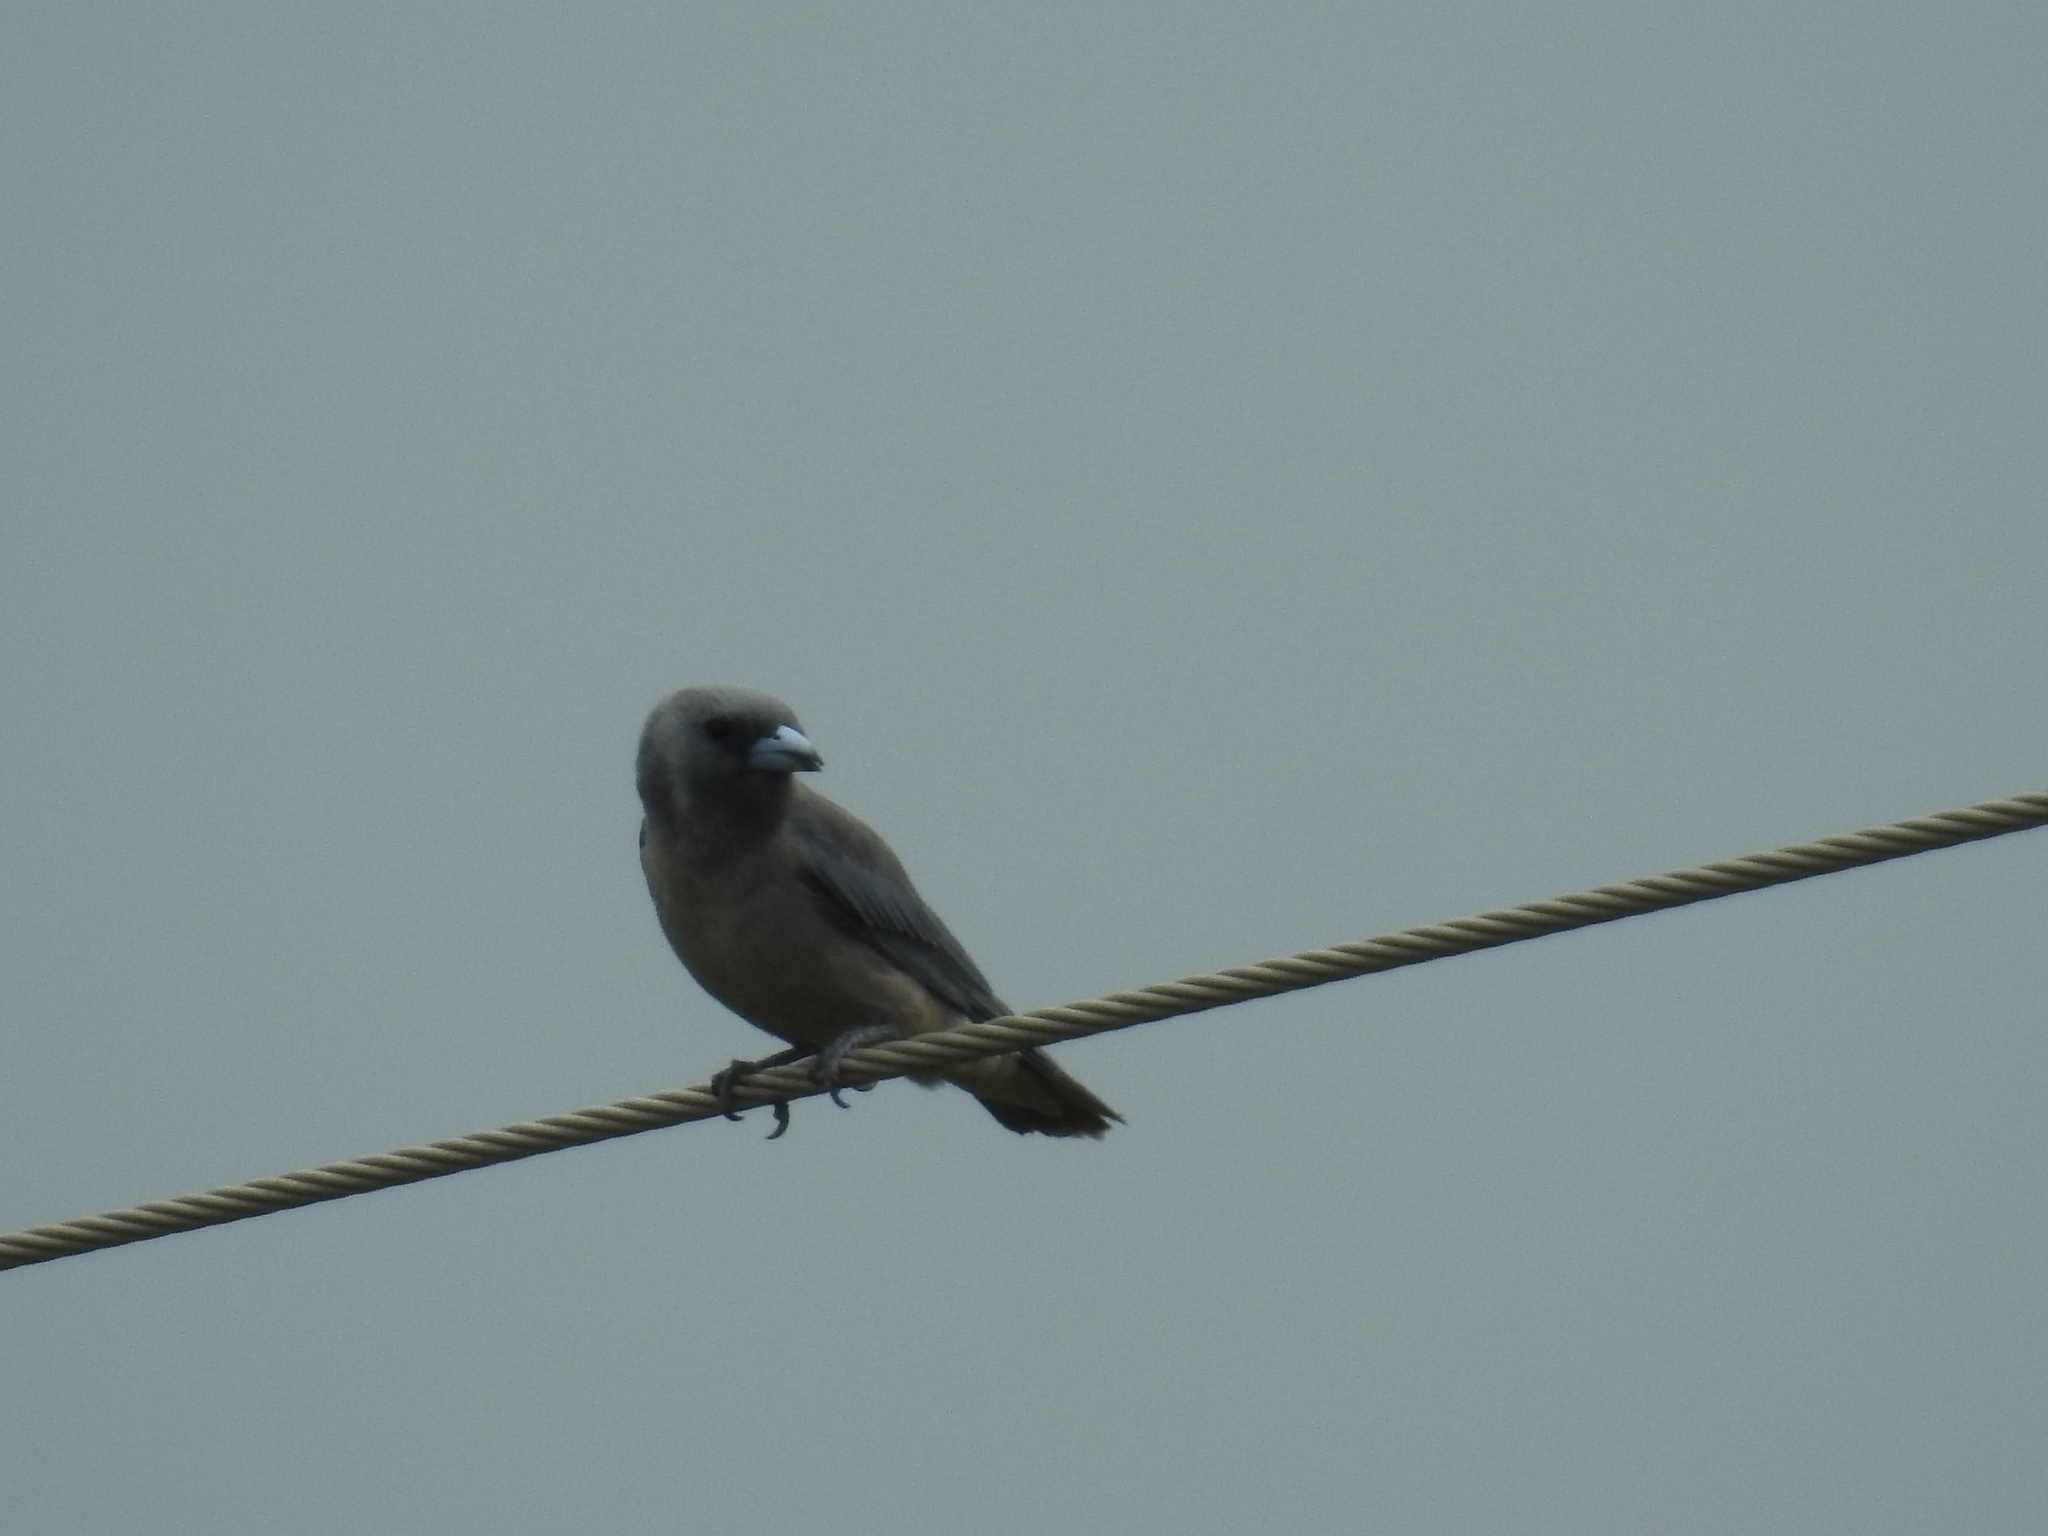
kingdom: Animalia
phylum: Chordata
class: Aves
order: Passeriformes
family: Artamidae
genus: Artamus
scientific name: Artamus fuscus
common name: Ashy woodswallow
